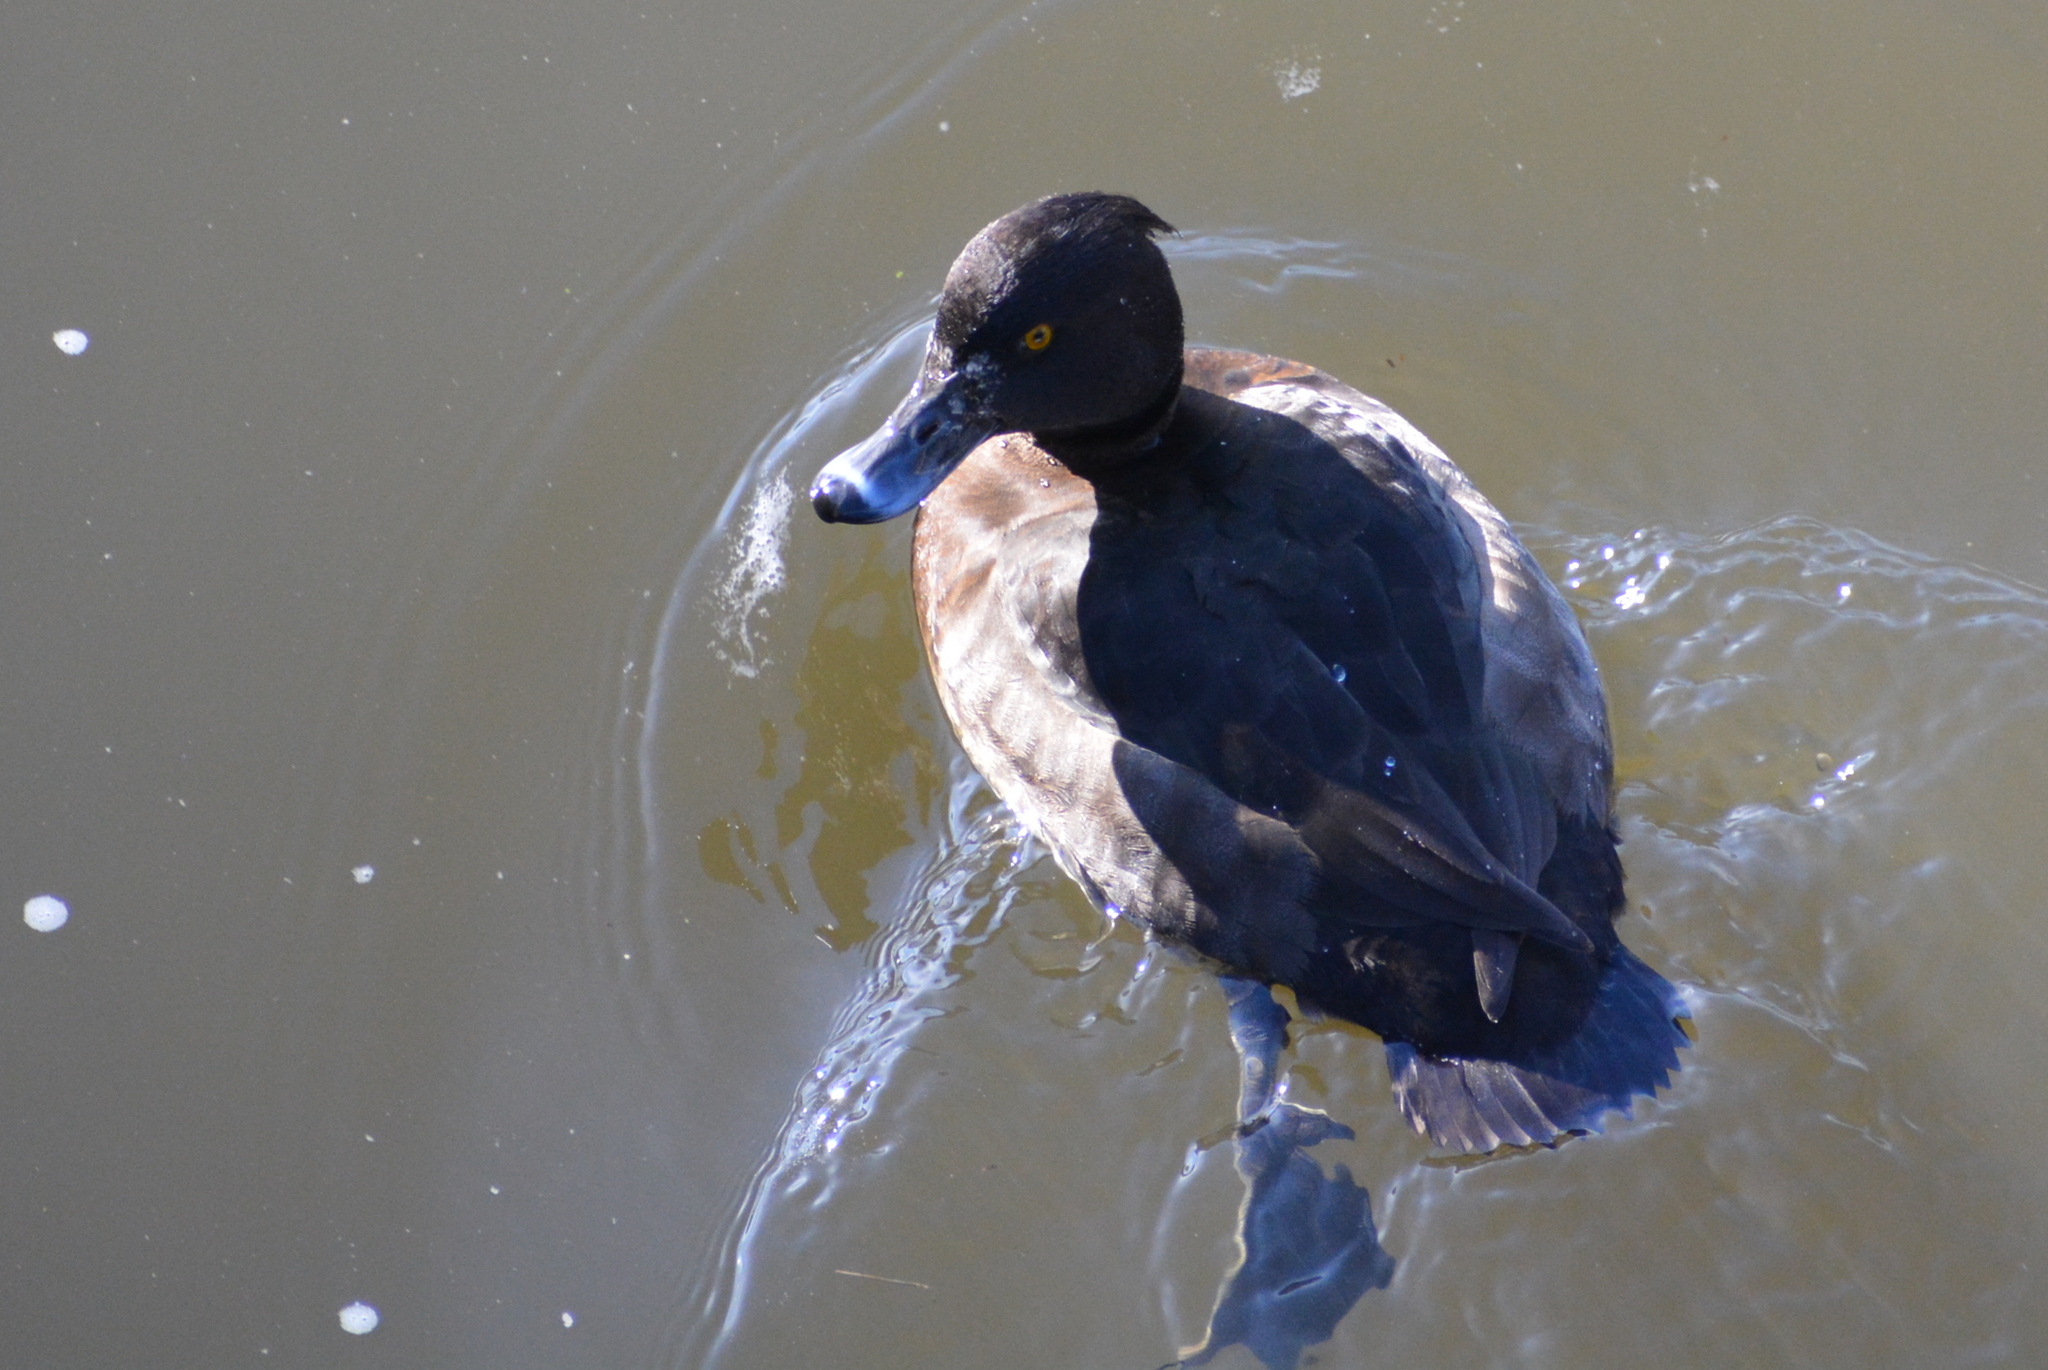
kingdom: Animalia
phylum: Chordata
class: Aves
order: Anseriformes
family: Anatidae
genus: Aythya
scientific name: Aythya fuligula
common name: Tufted duck
